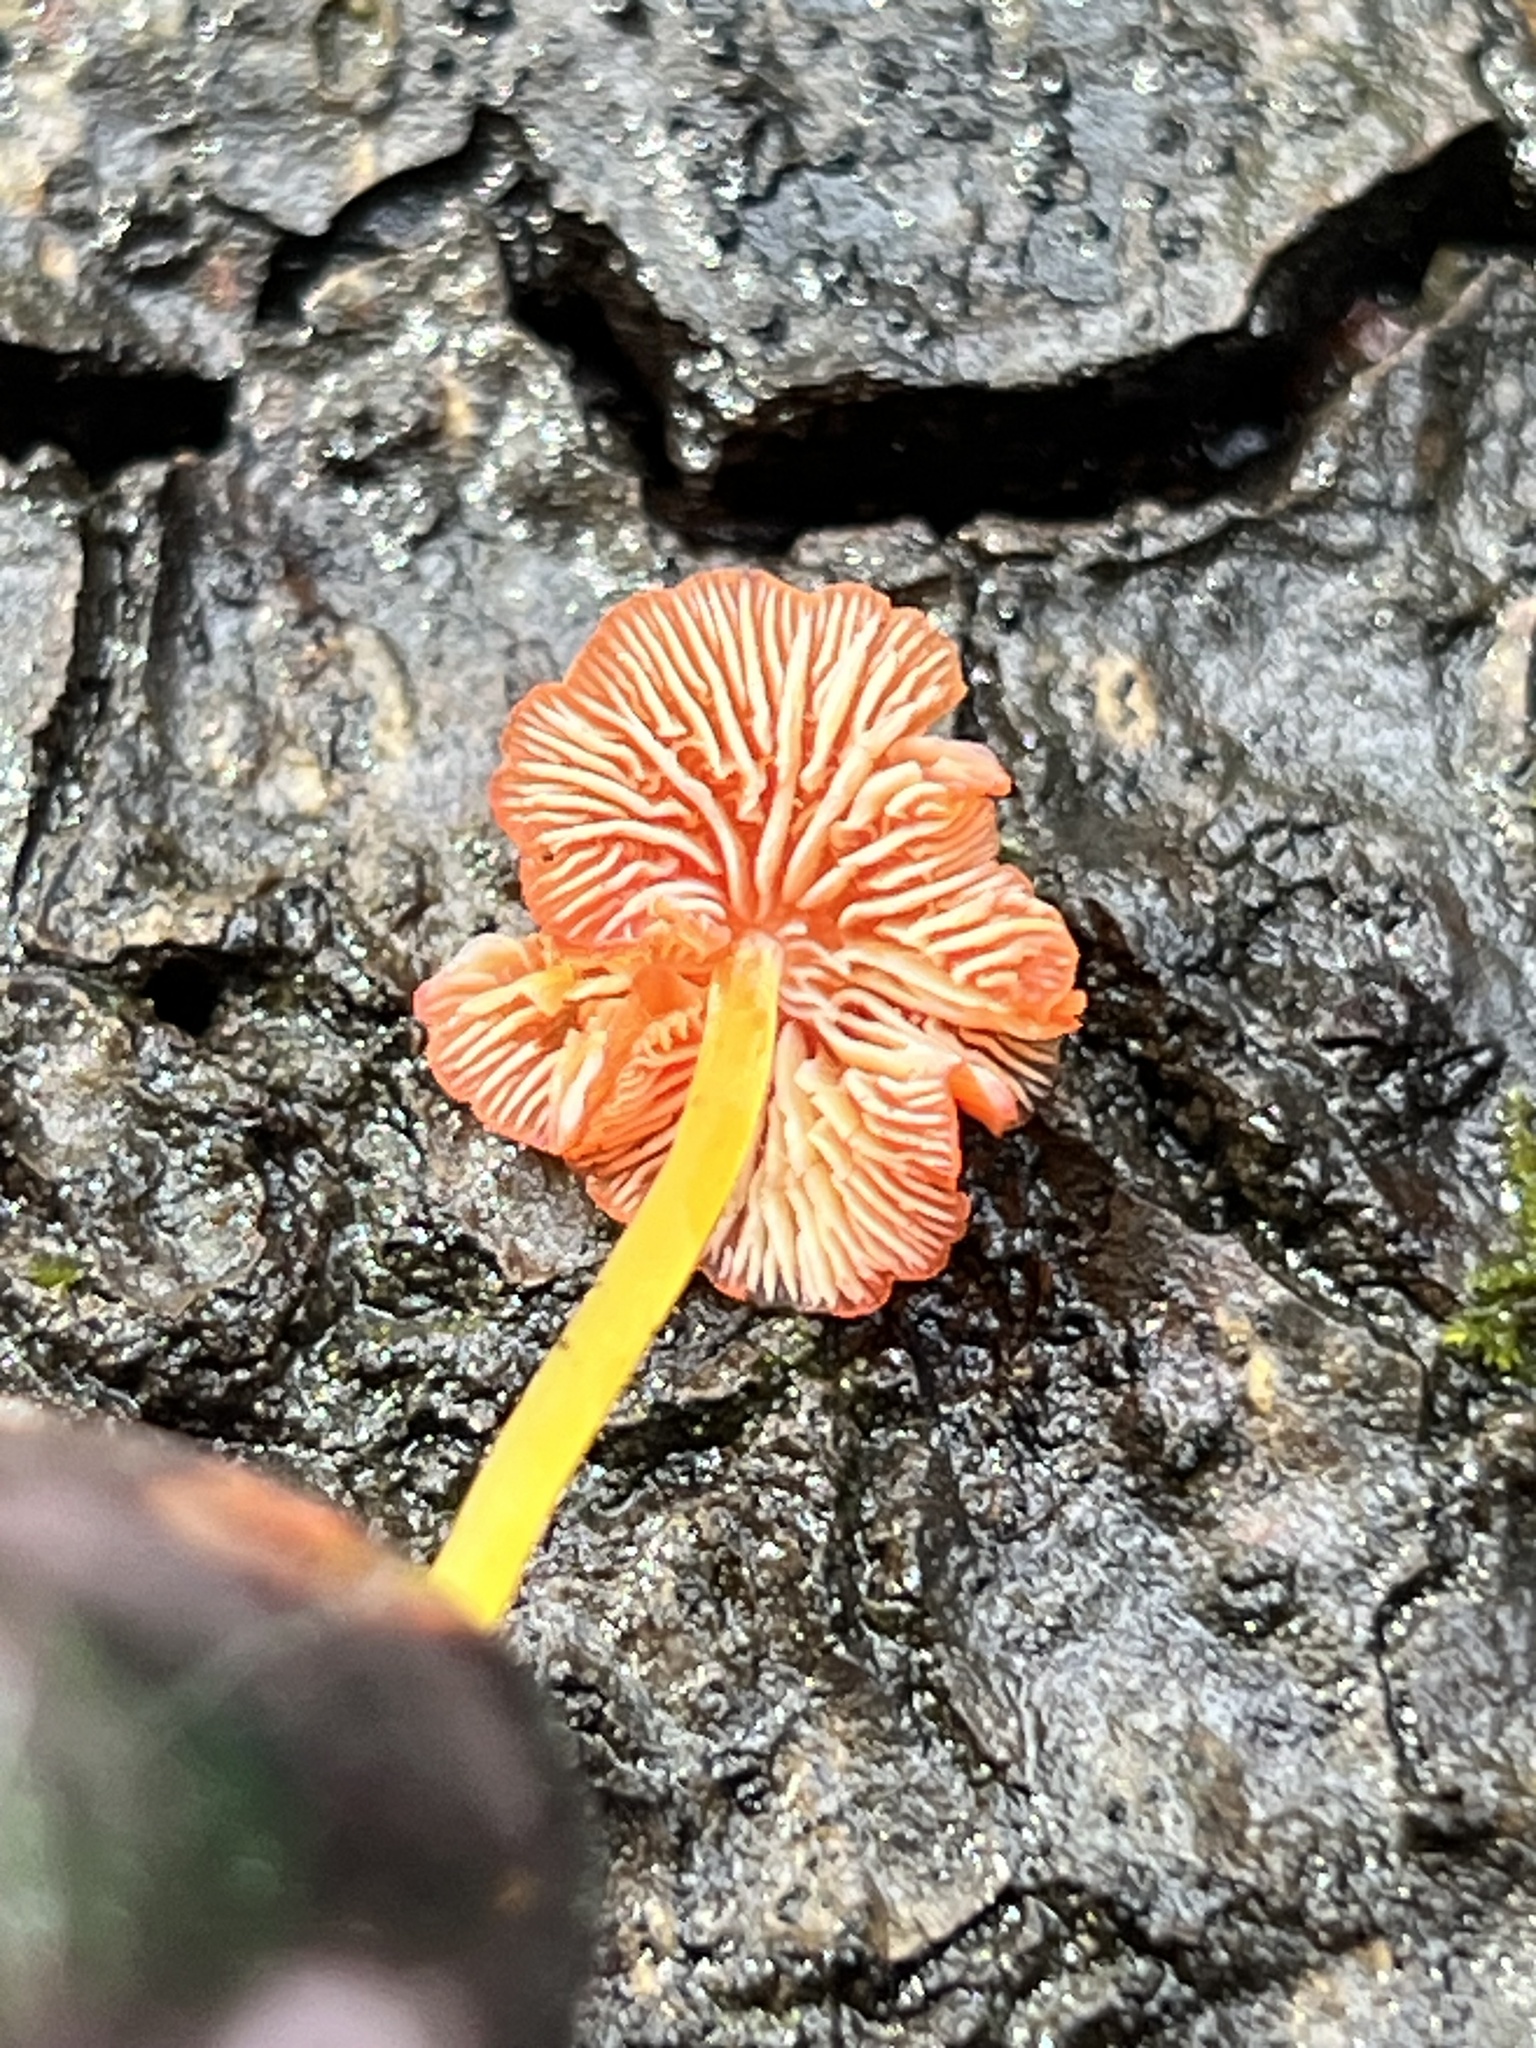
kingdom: Fungi
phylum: Basidiomycota
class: Agaricomycetes
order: Agaricales
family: Mycenaceae
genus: Mycena
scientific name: Mycena acicula
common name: Orange bonnet
